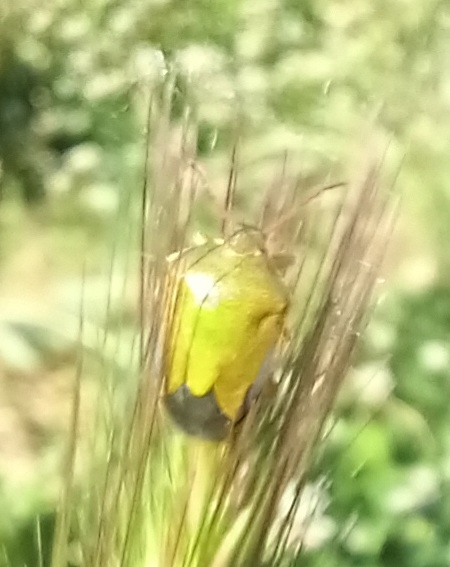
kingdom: Animalia
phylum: Arthropoda
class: Insecta
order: Hemiptera
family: Pentatomidae
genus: Piezodorus
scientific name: Piezodorus lituratus
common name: Stink bug
